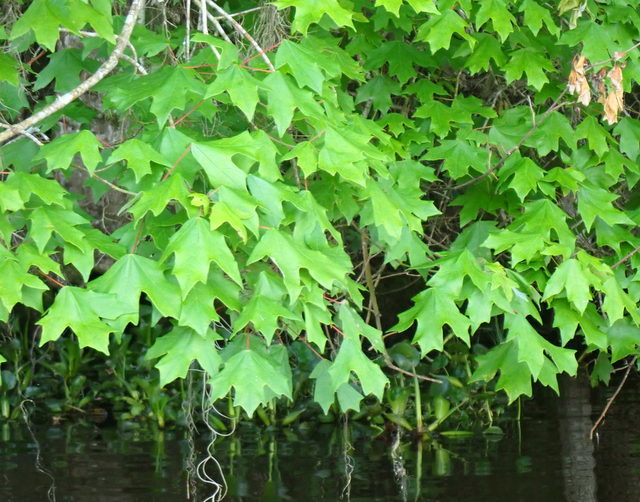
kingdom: Plantae
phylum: Tracheophyta
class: Magnoliopsida
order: Sapindales
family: Sapindaceae
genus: Acer
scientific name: Acer floridanum
